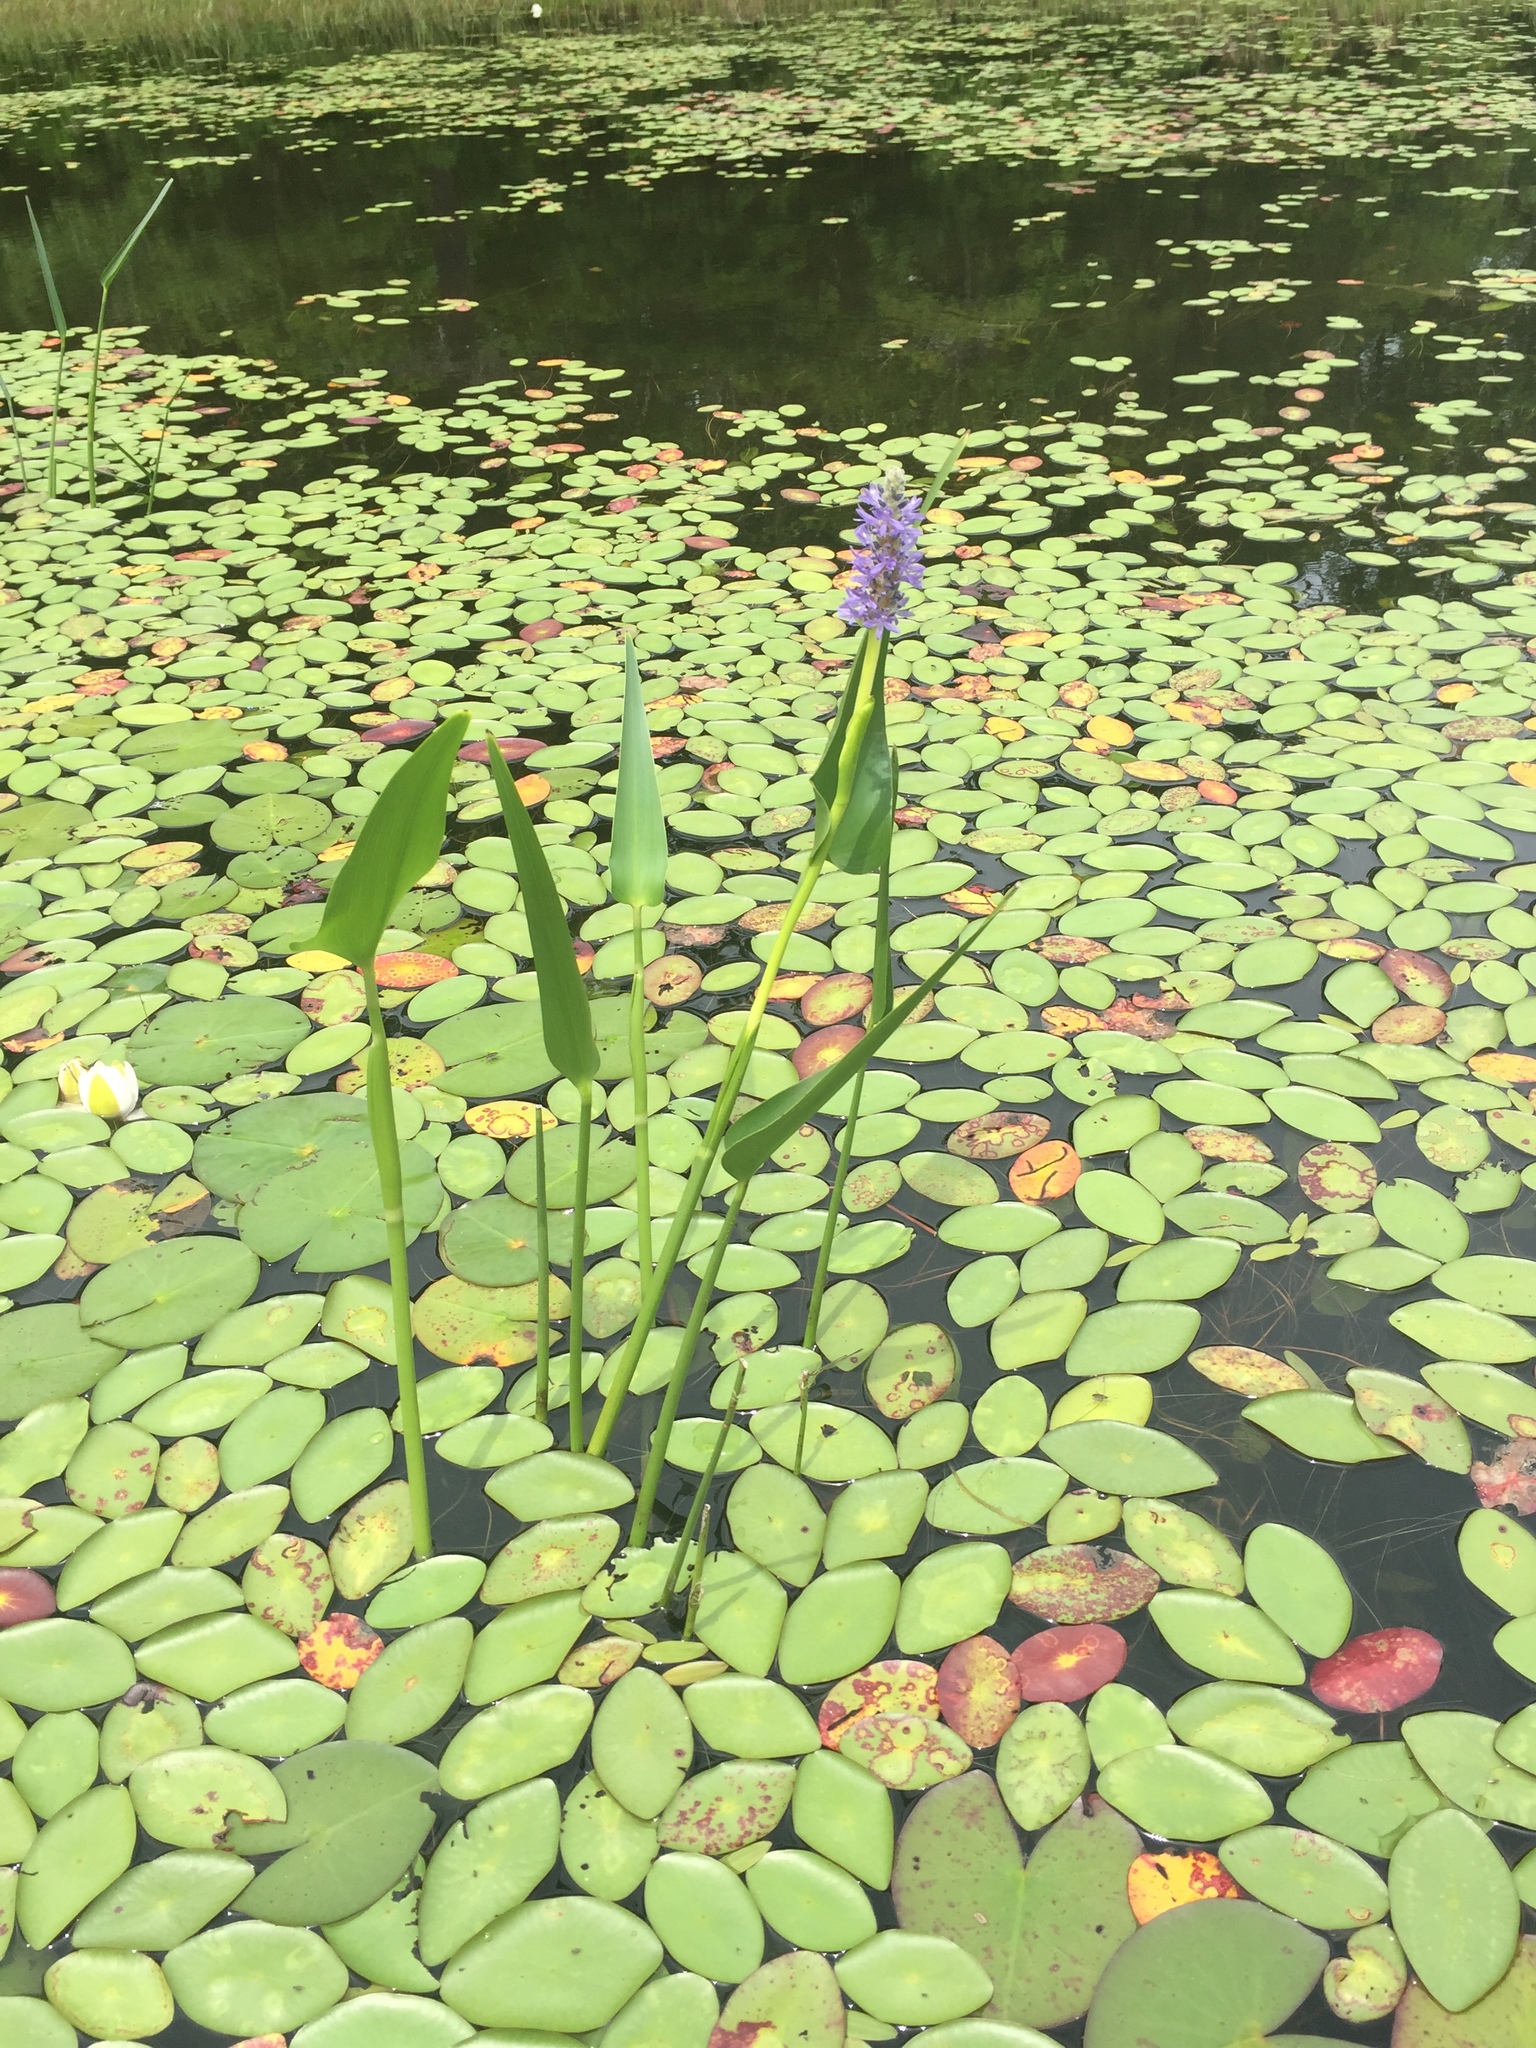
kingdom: Plantae
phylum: Tracheophyta
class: Liliopsida
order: Commelinales
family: Pontederiaceae
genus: Pontederia
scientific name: Pontederia cordata
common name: Pickerelweed
